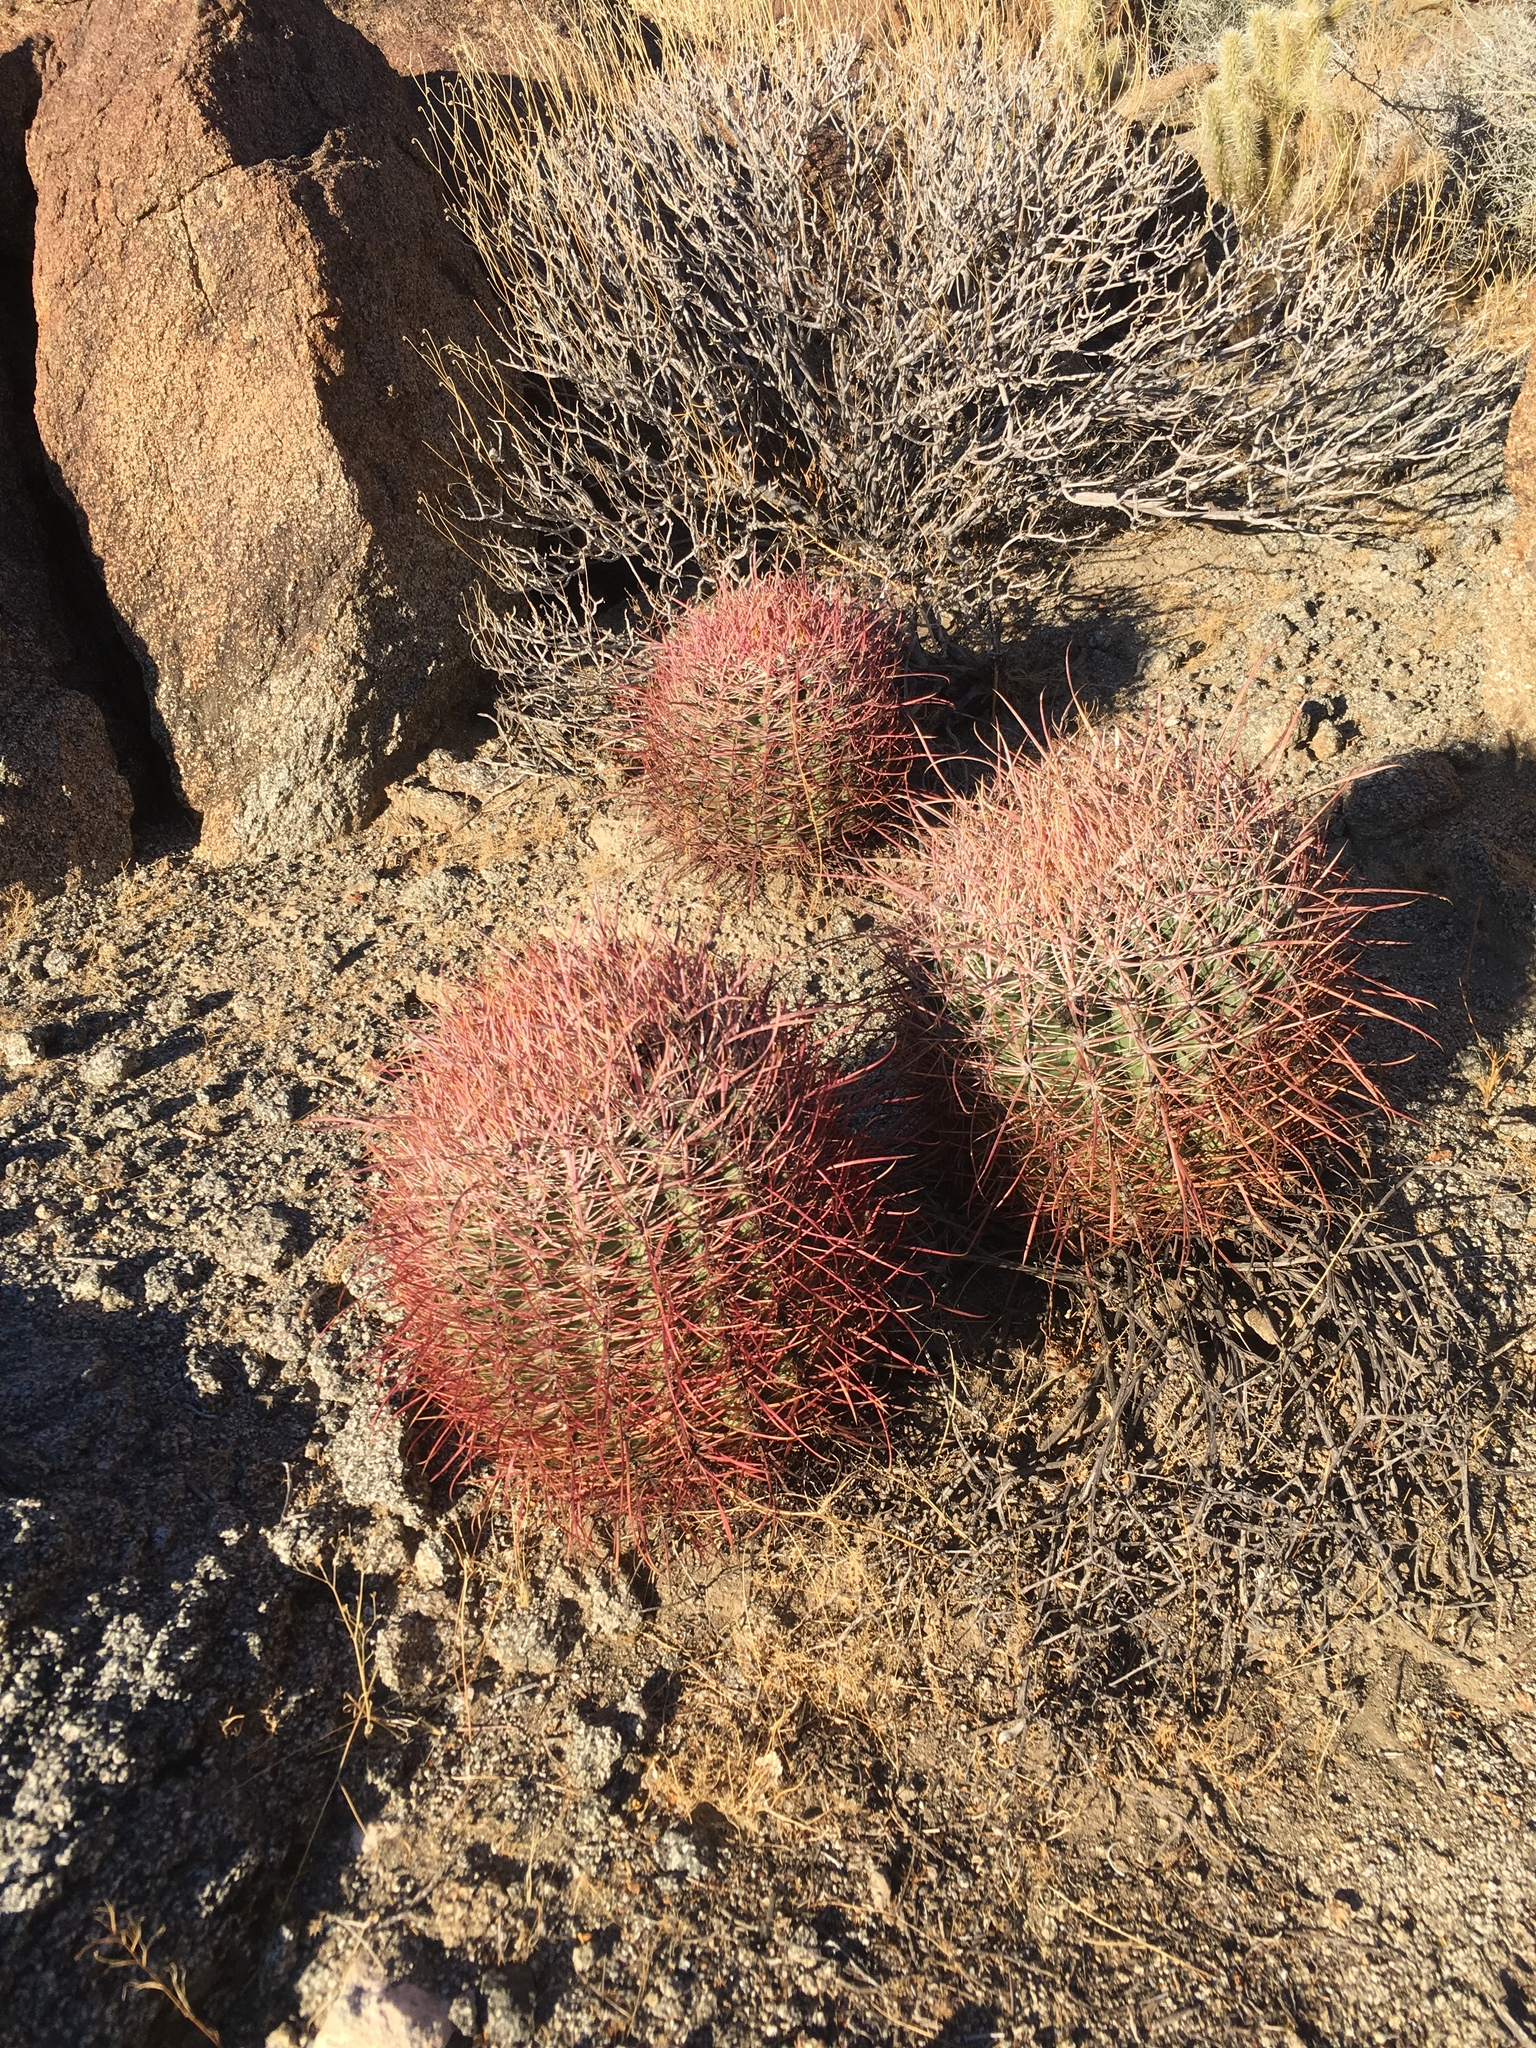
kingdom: Plantae
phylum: Tracheophyta
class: Magnoliopsida
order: Caryophyllales
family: Cactaceae
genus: Ferocactus
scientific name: Ferocactus cylindraceus
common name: California barrel cactus
